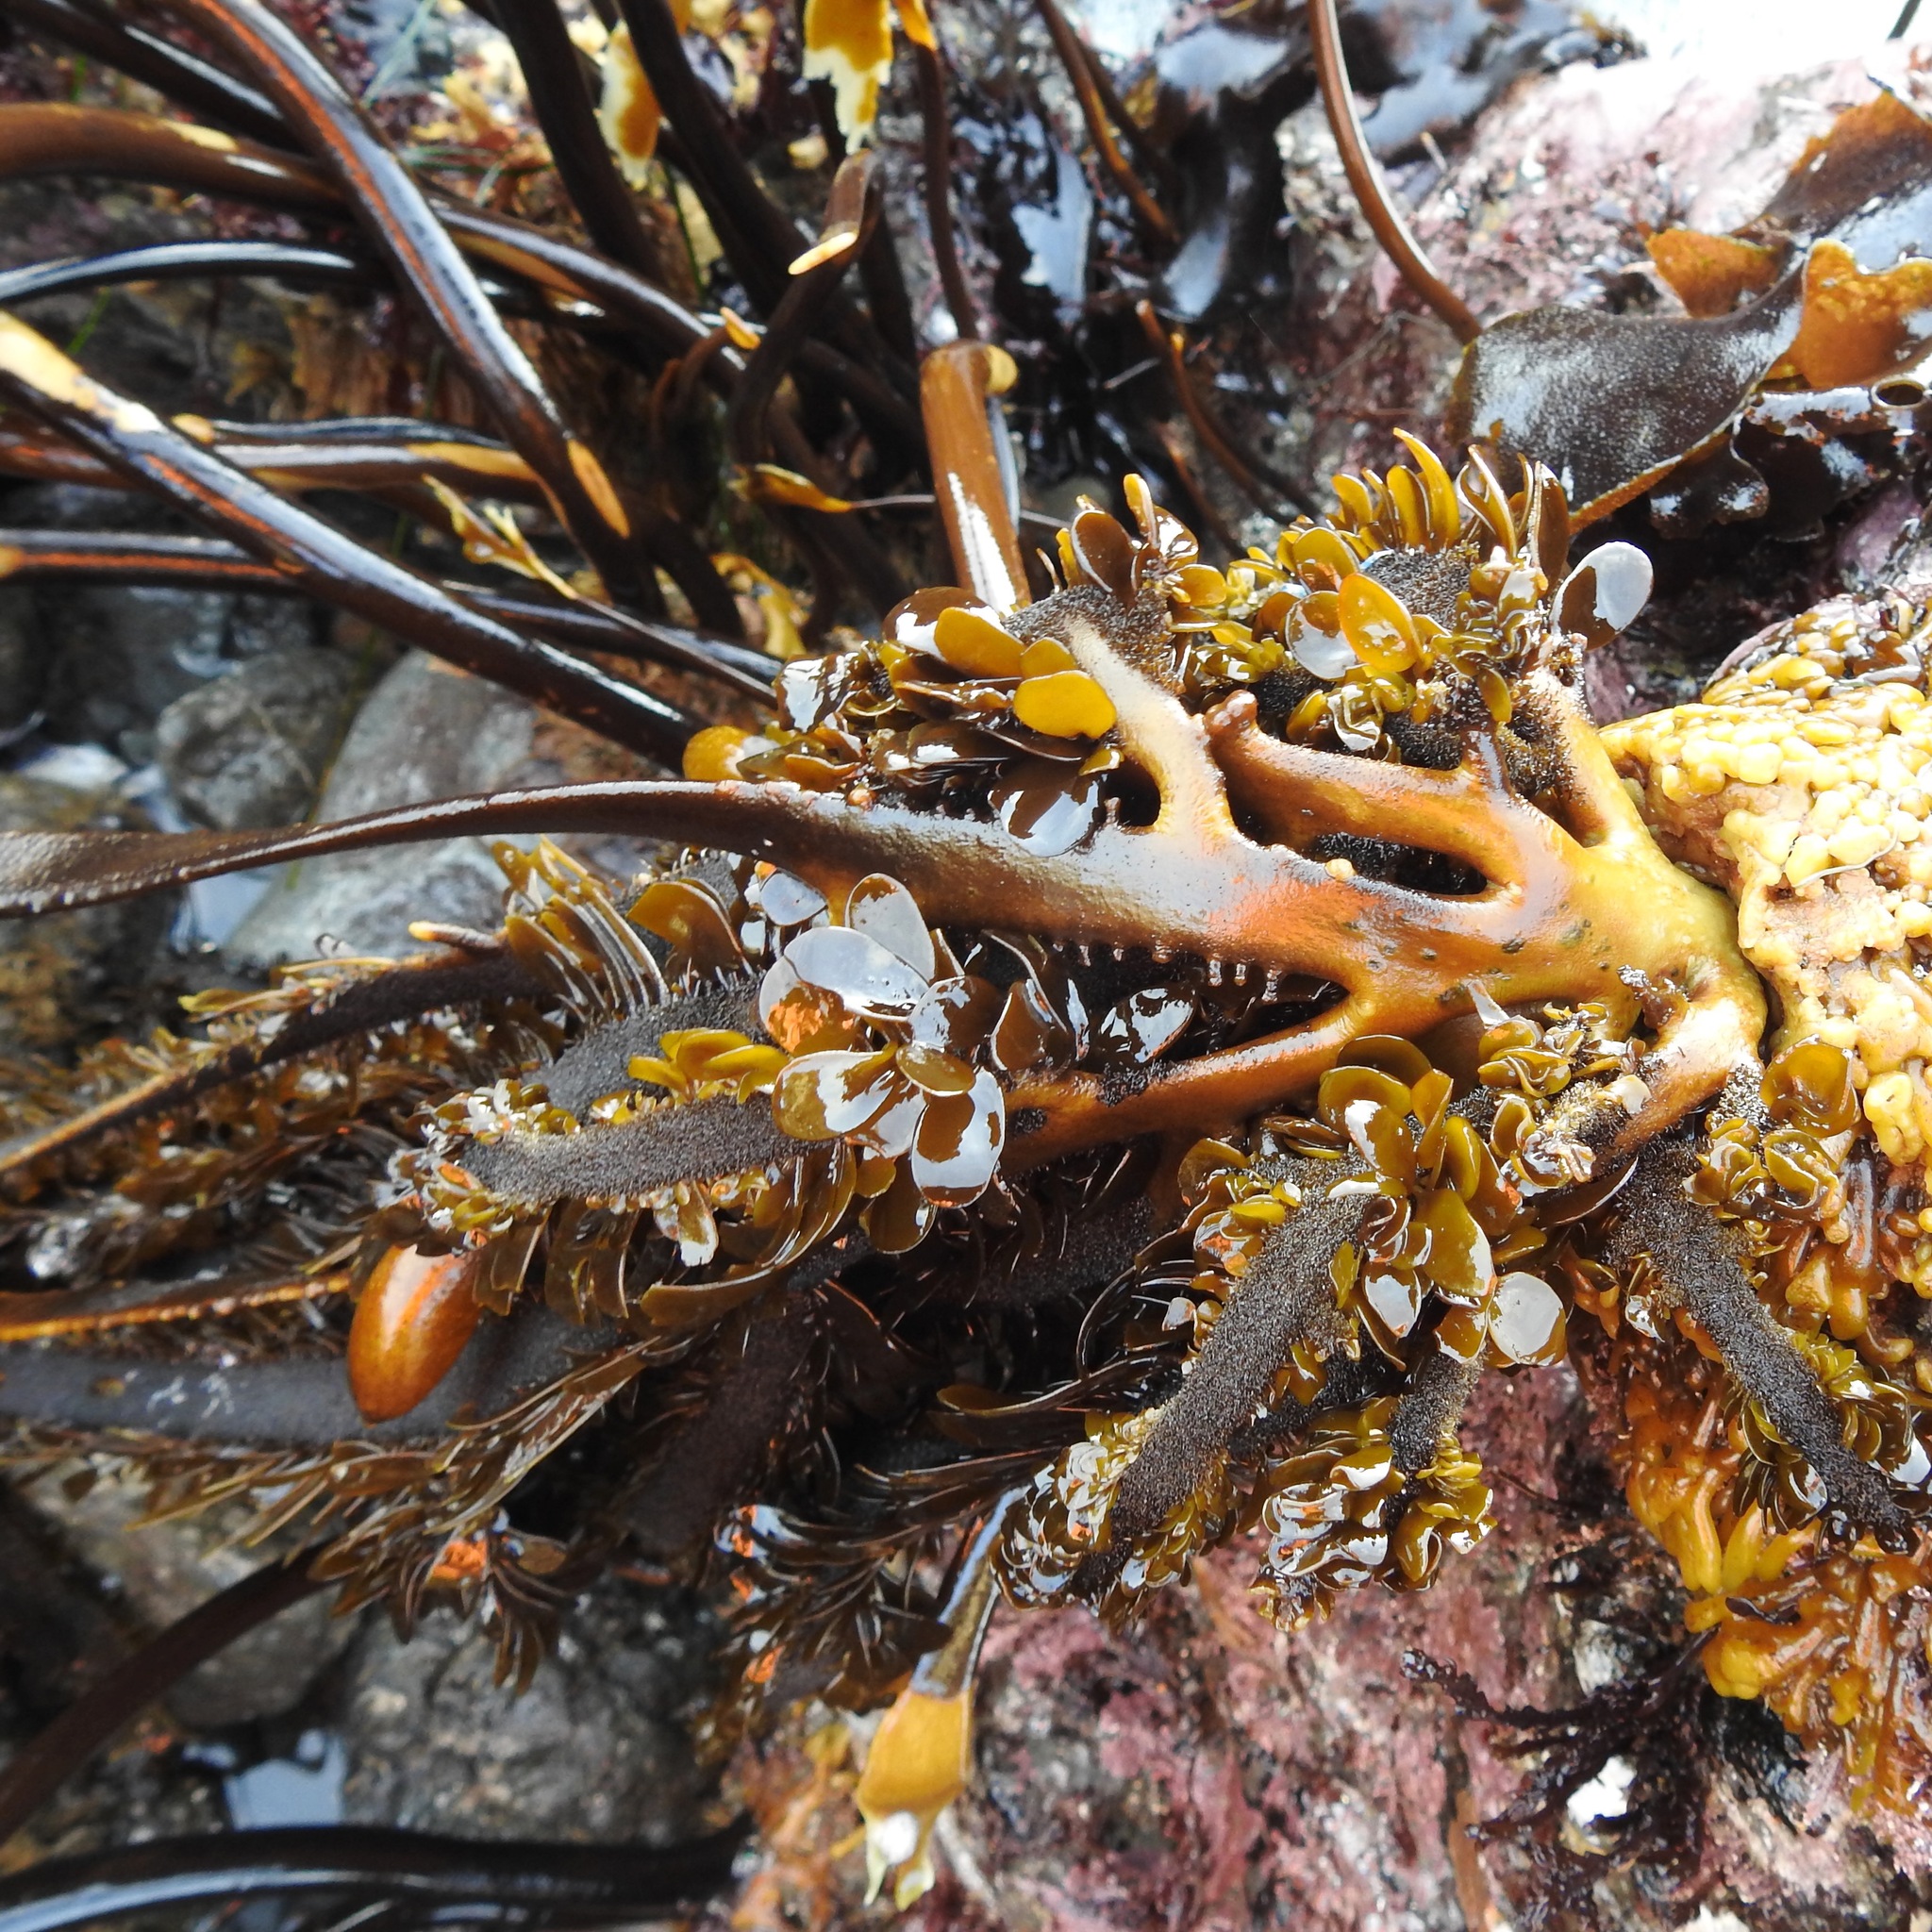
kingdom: Chromista
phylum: Ochrophyta
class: Phaeophyceae
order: Laminariales
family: Lessoniaceae
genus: Egregia
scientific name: Egregia menziesii
